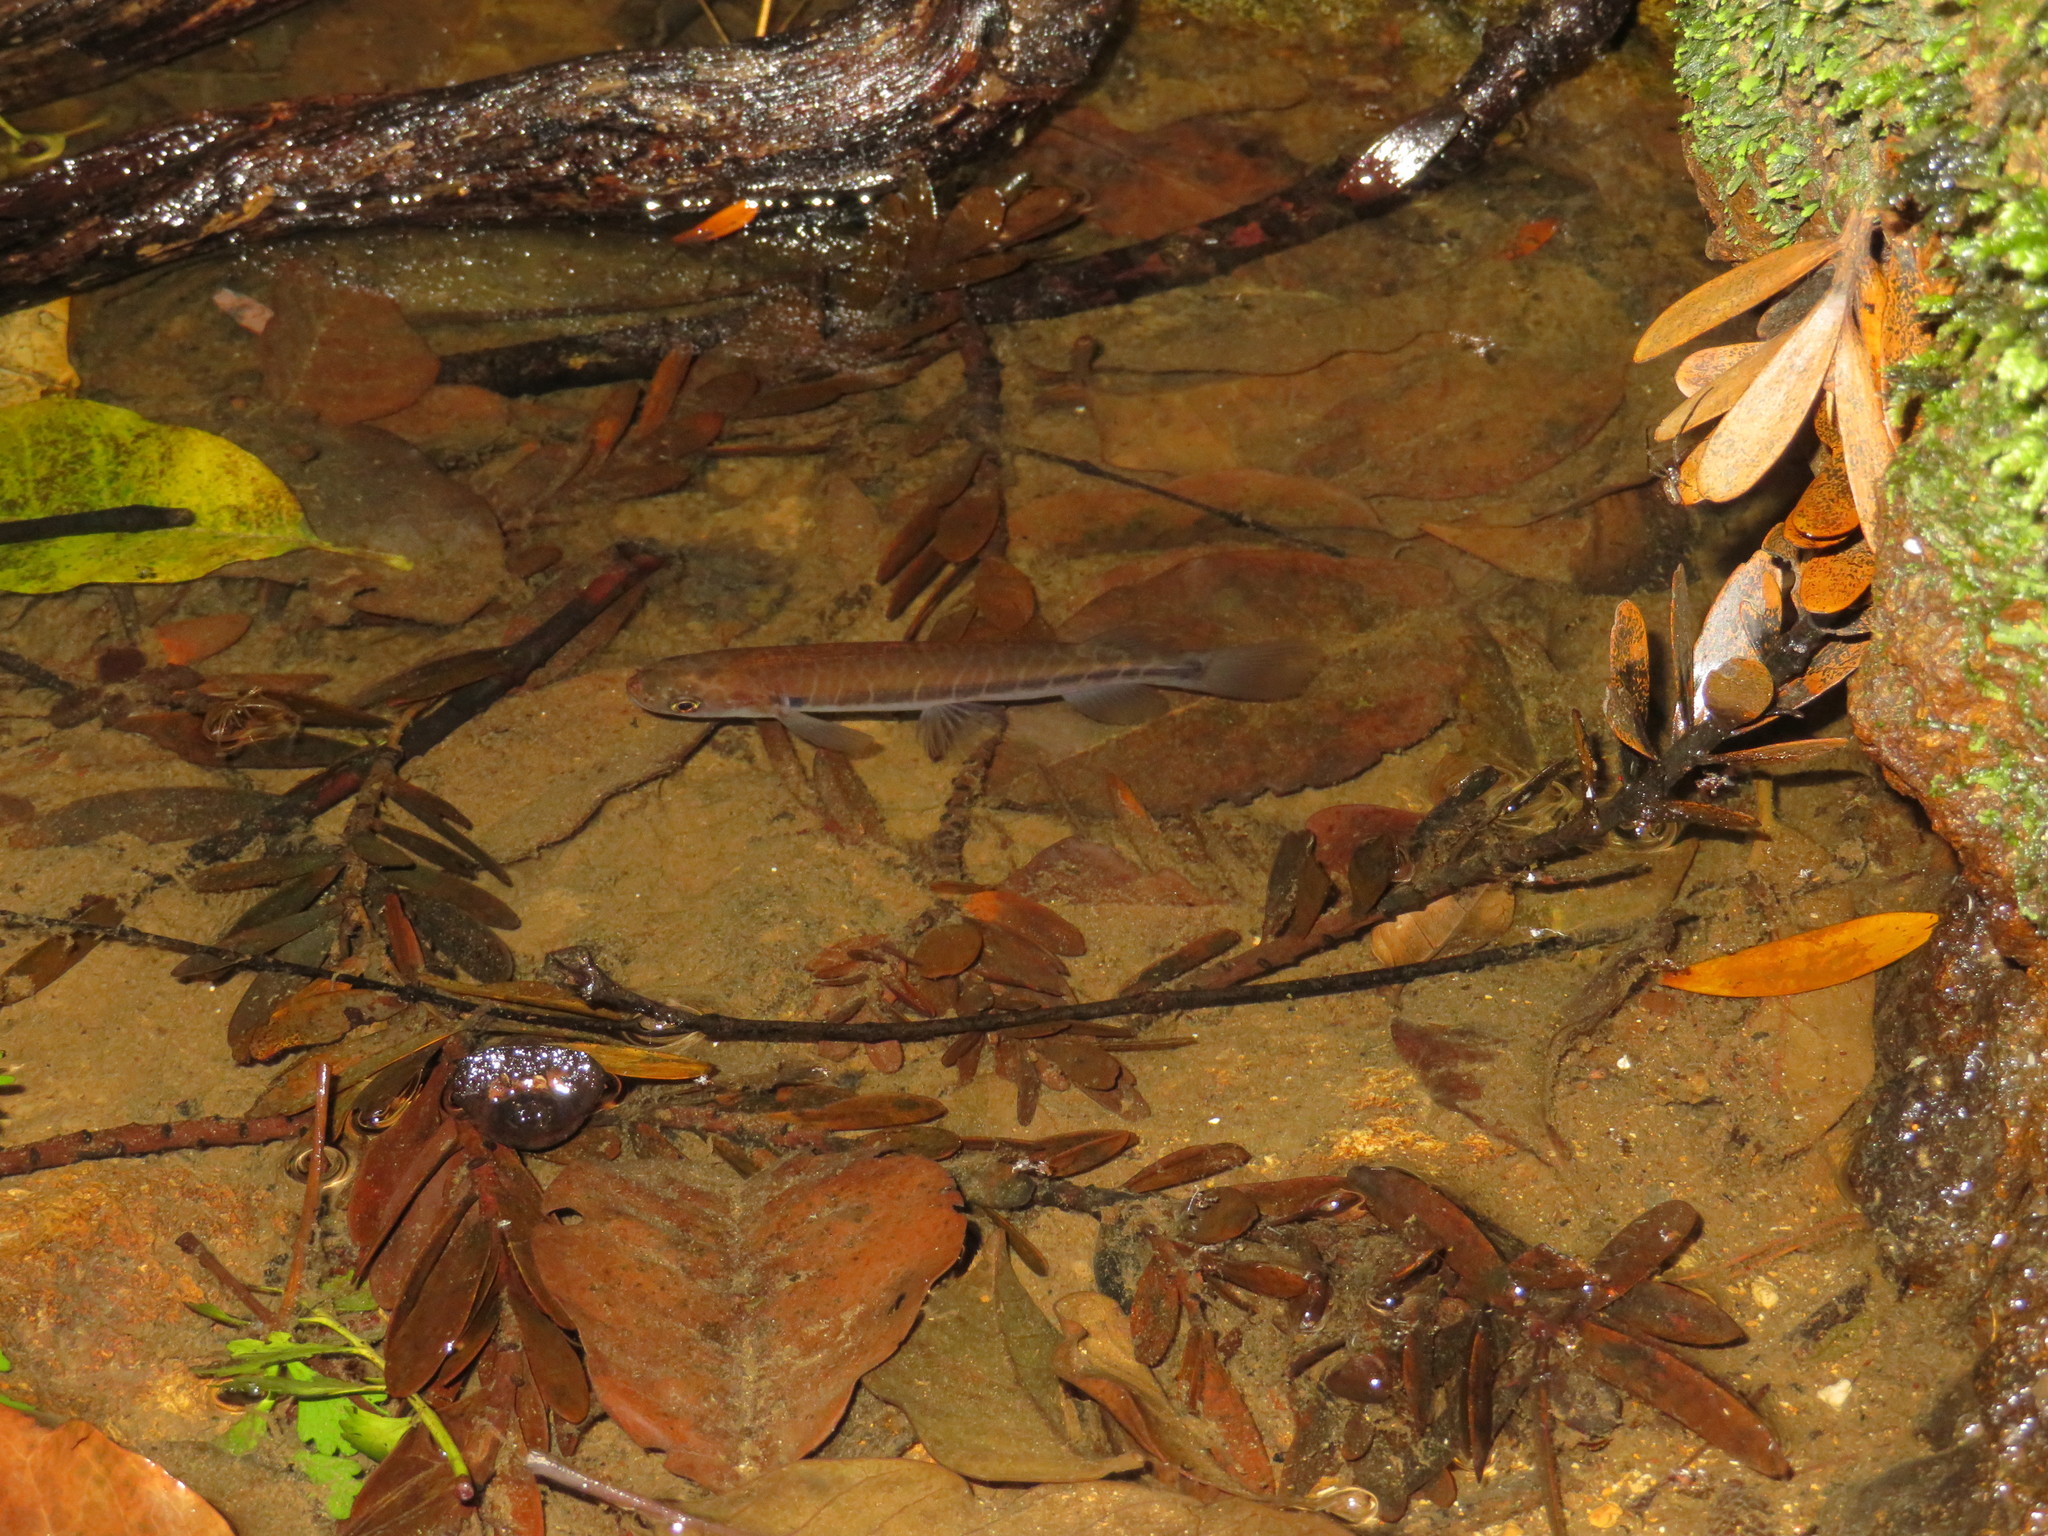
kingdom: Animalia
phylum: Chordata
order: Osmeriformes
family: Galaxiidae
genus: Galaxias
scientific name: Galaxias fasciatus
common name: Banded kokopu
